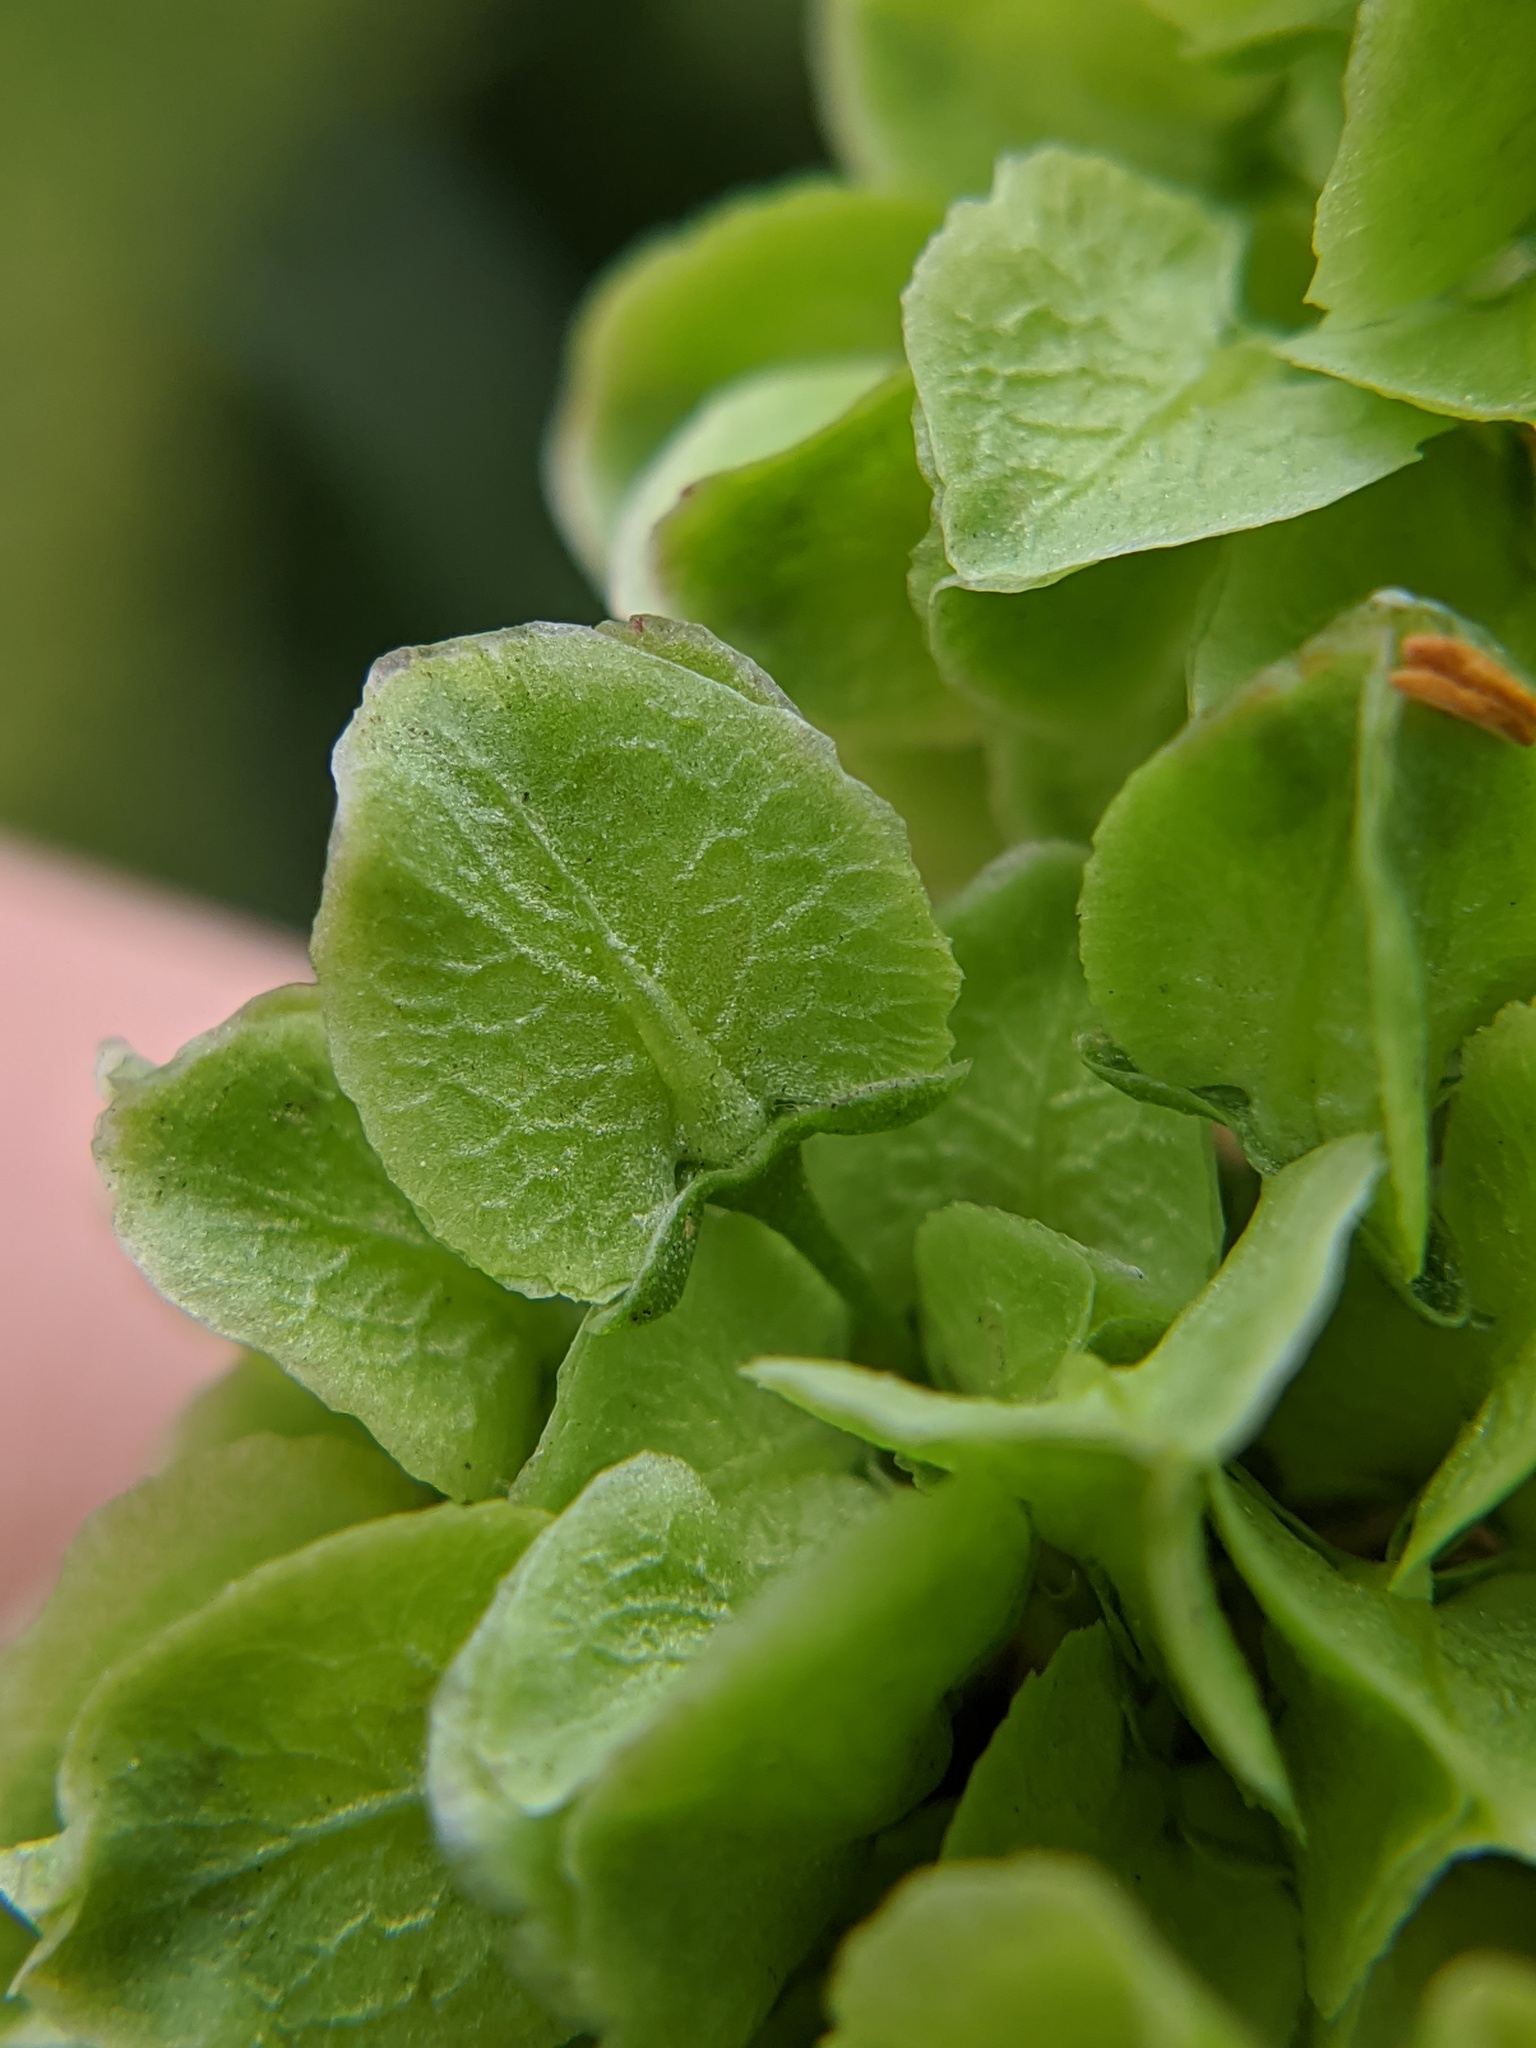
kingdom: Plantae
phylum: Tracheophyta
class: Magnoliopsida
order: Caryophyllales
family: Polygonaceae
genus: Rumex
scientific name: Rumex crispus
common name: Curled dock
